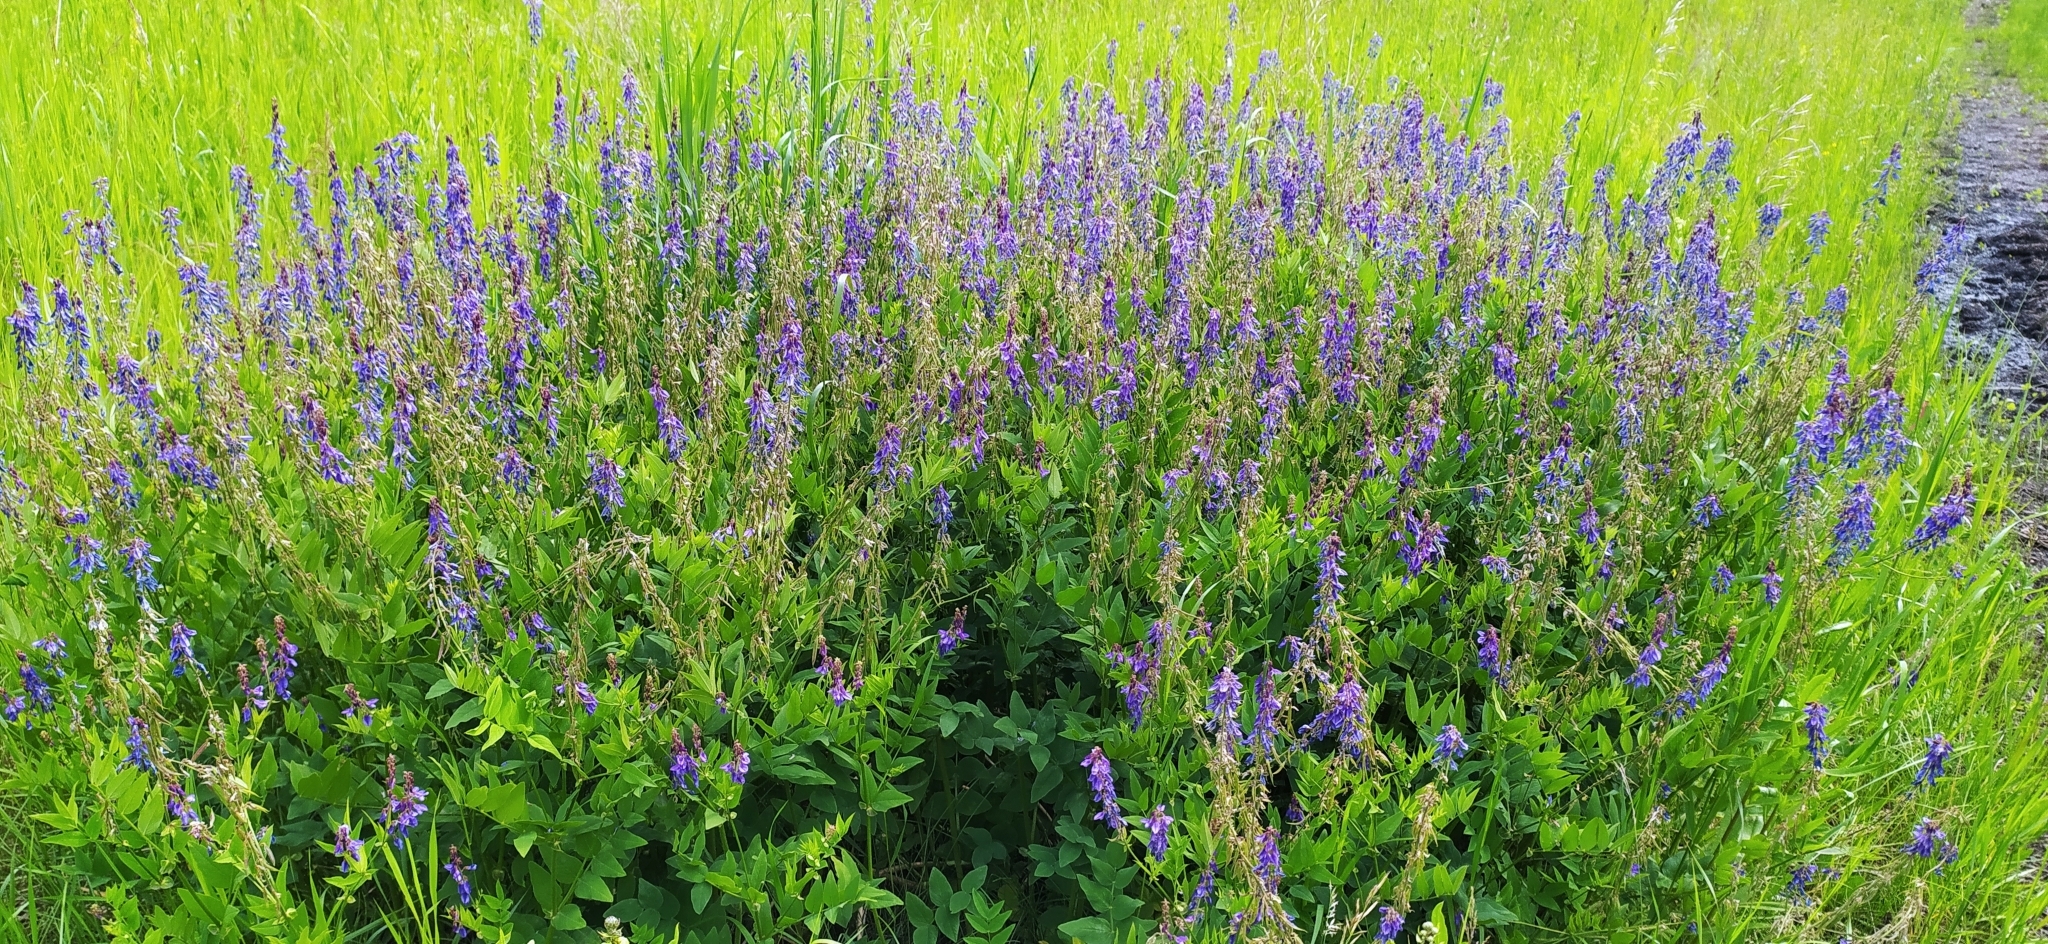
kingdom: Plantae
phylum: Tracheophyta
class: Magnoliopsida
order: Fabales
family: Fabaceae
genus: Galega
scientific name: Galega orientalis
